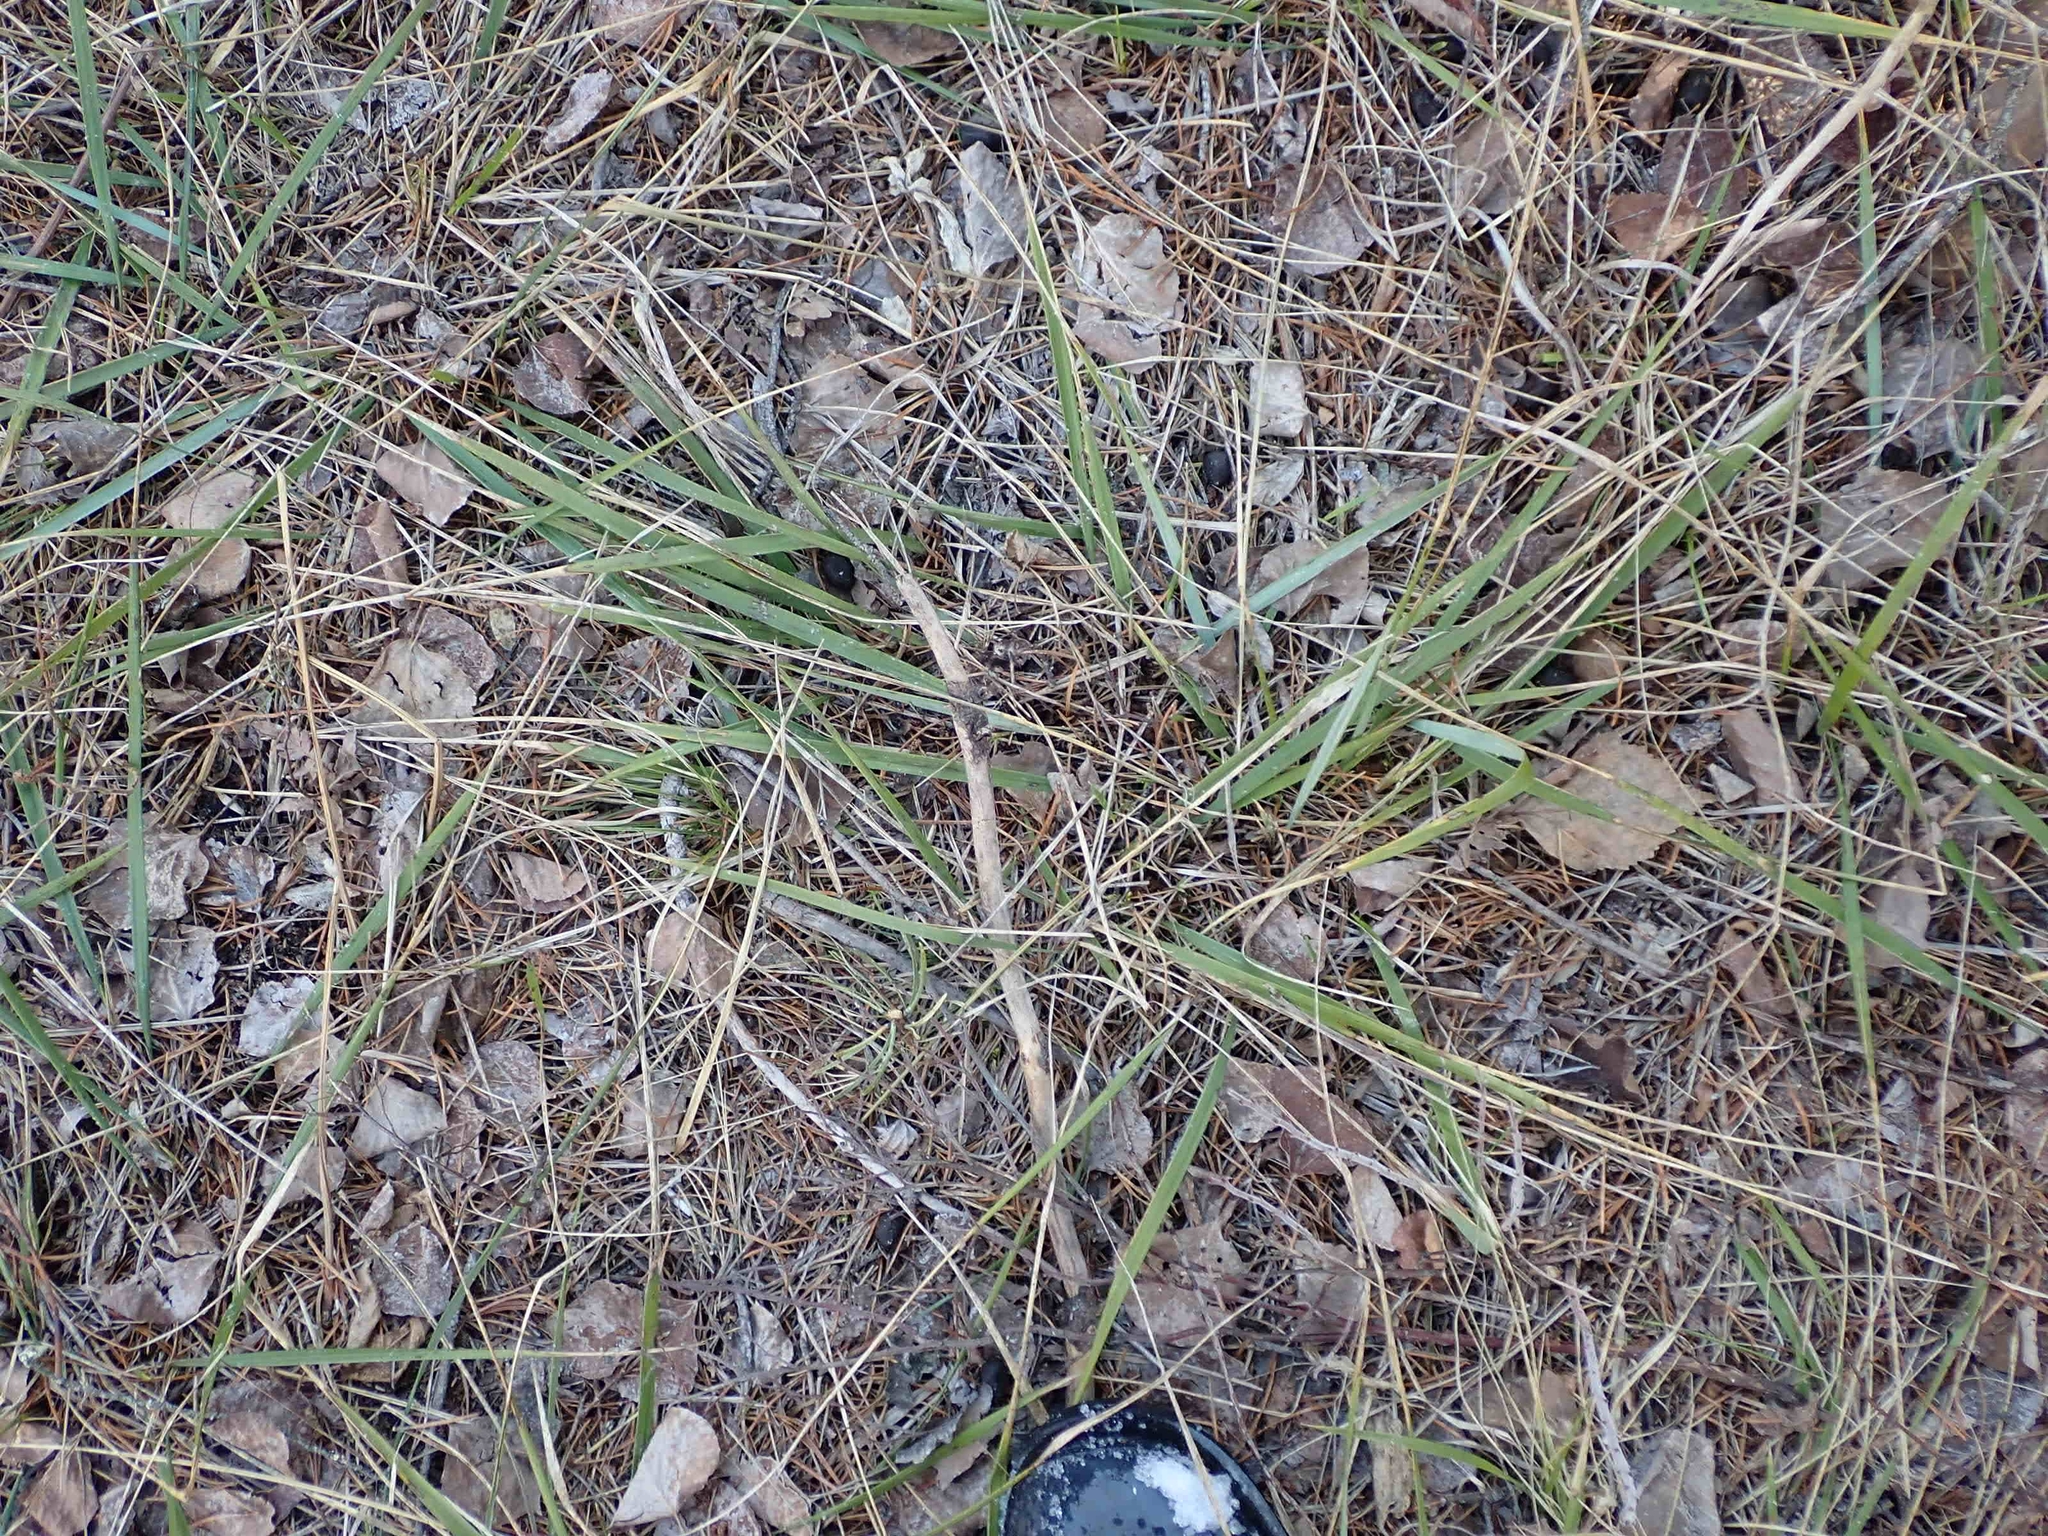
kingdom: Plantae
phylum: Tracheophyta
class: Liliopsida
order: Poales
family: Poaceae
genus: Oryzopsis
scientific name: Oryzopsis asperifolia
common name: Rough-leaved mountain rice
